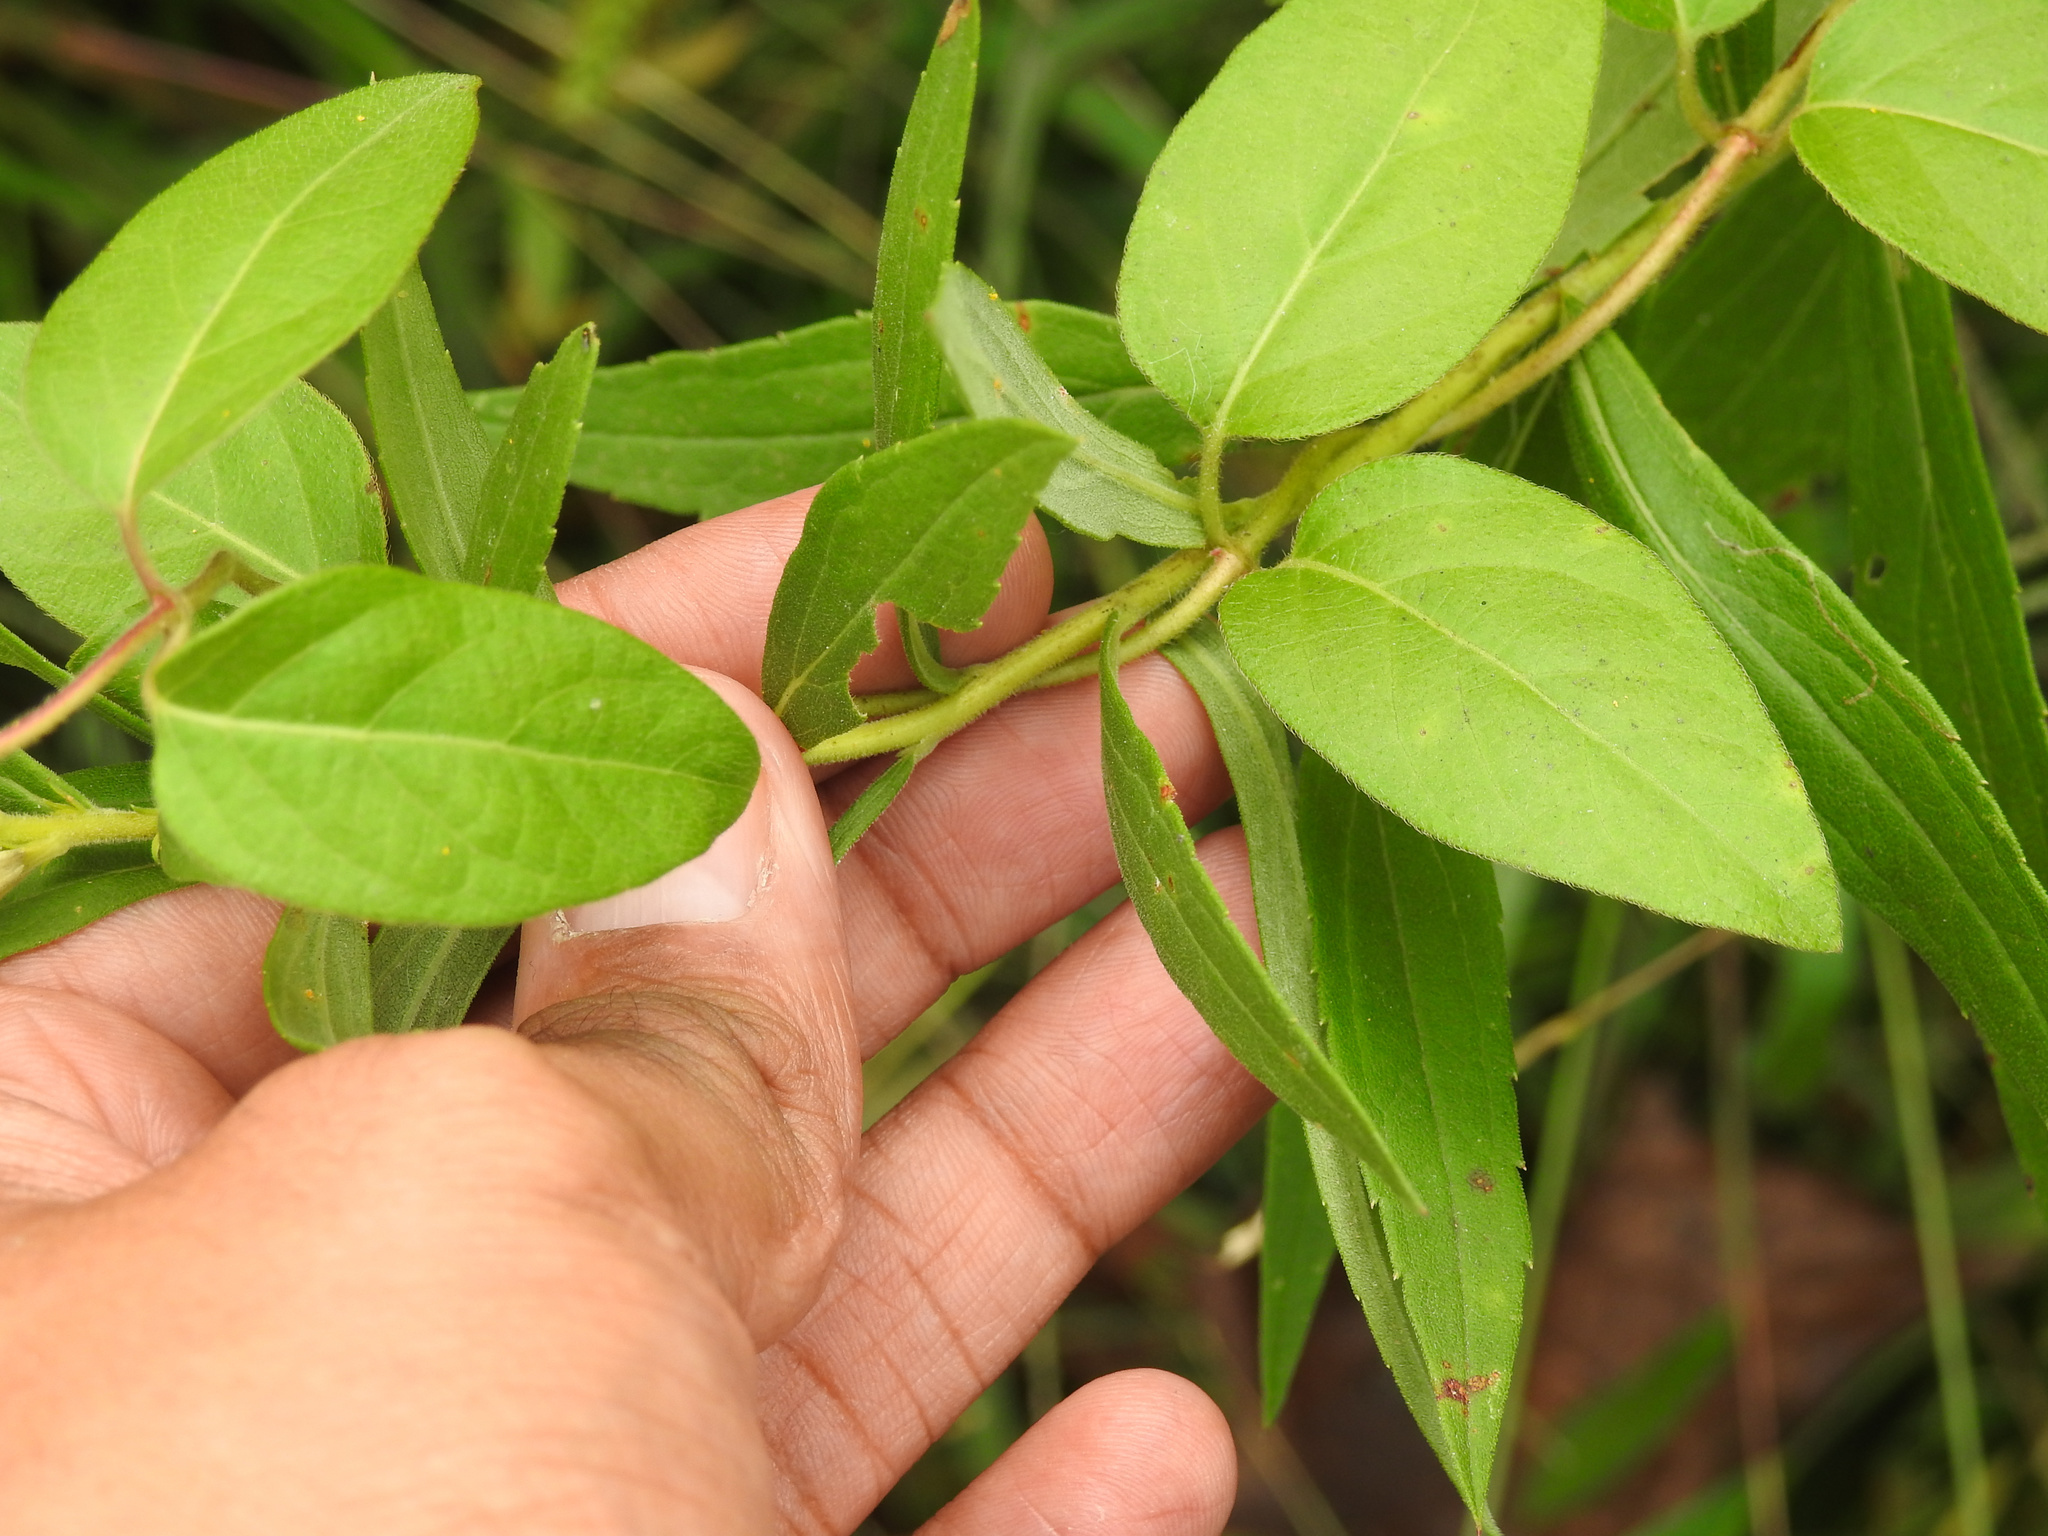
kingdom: Plantae
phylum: Tracheophyta
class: Magnoliopsida
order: Dipsacales
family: Caprifoliaceae
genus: Lonicera
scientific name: Lonicera japonica
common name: Japanese honeysuckle
